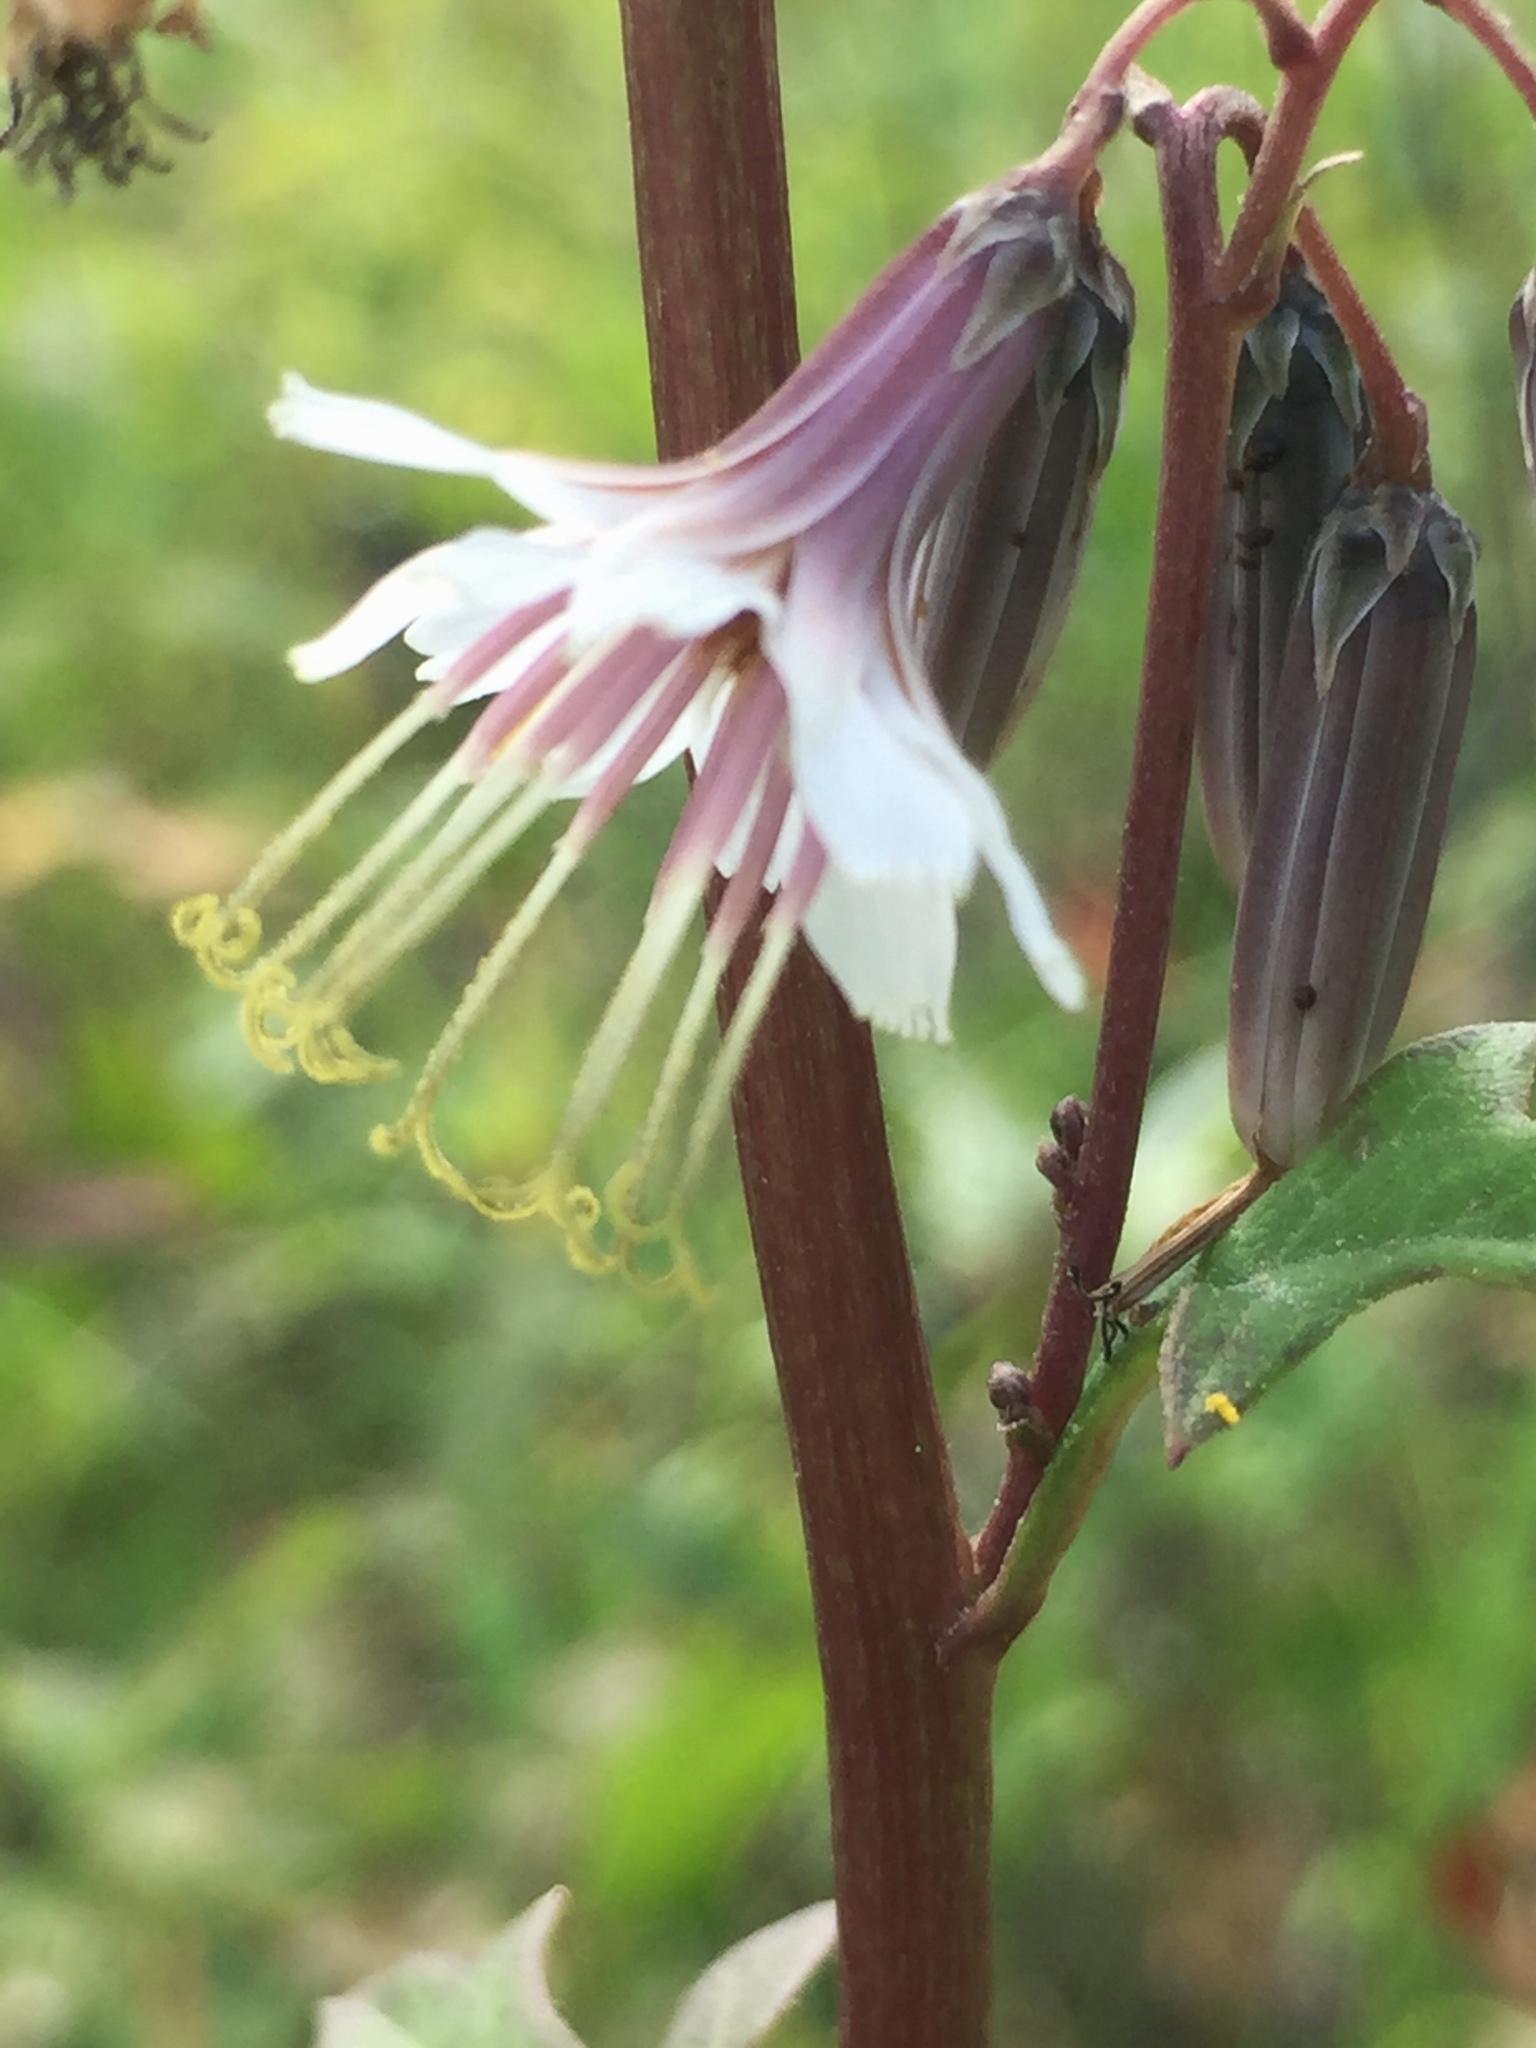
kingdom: Plantae
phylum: Tracheophyta
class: Magnoliopsida
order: Asterales
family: Asteraceae
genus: Nabalus
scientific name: Nabalus albus
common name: White rattlesnakeroot
